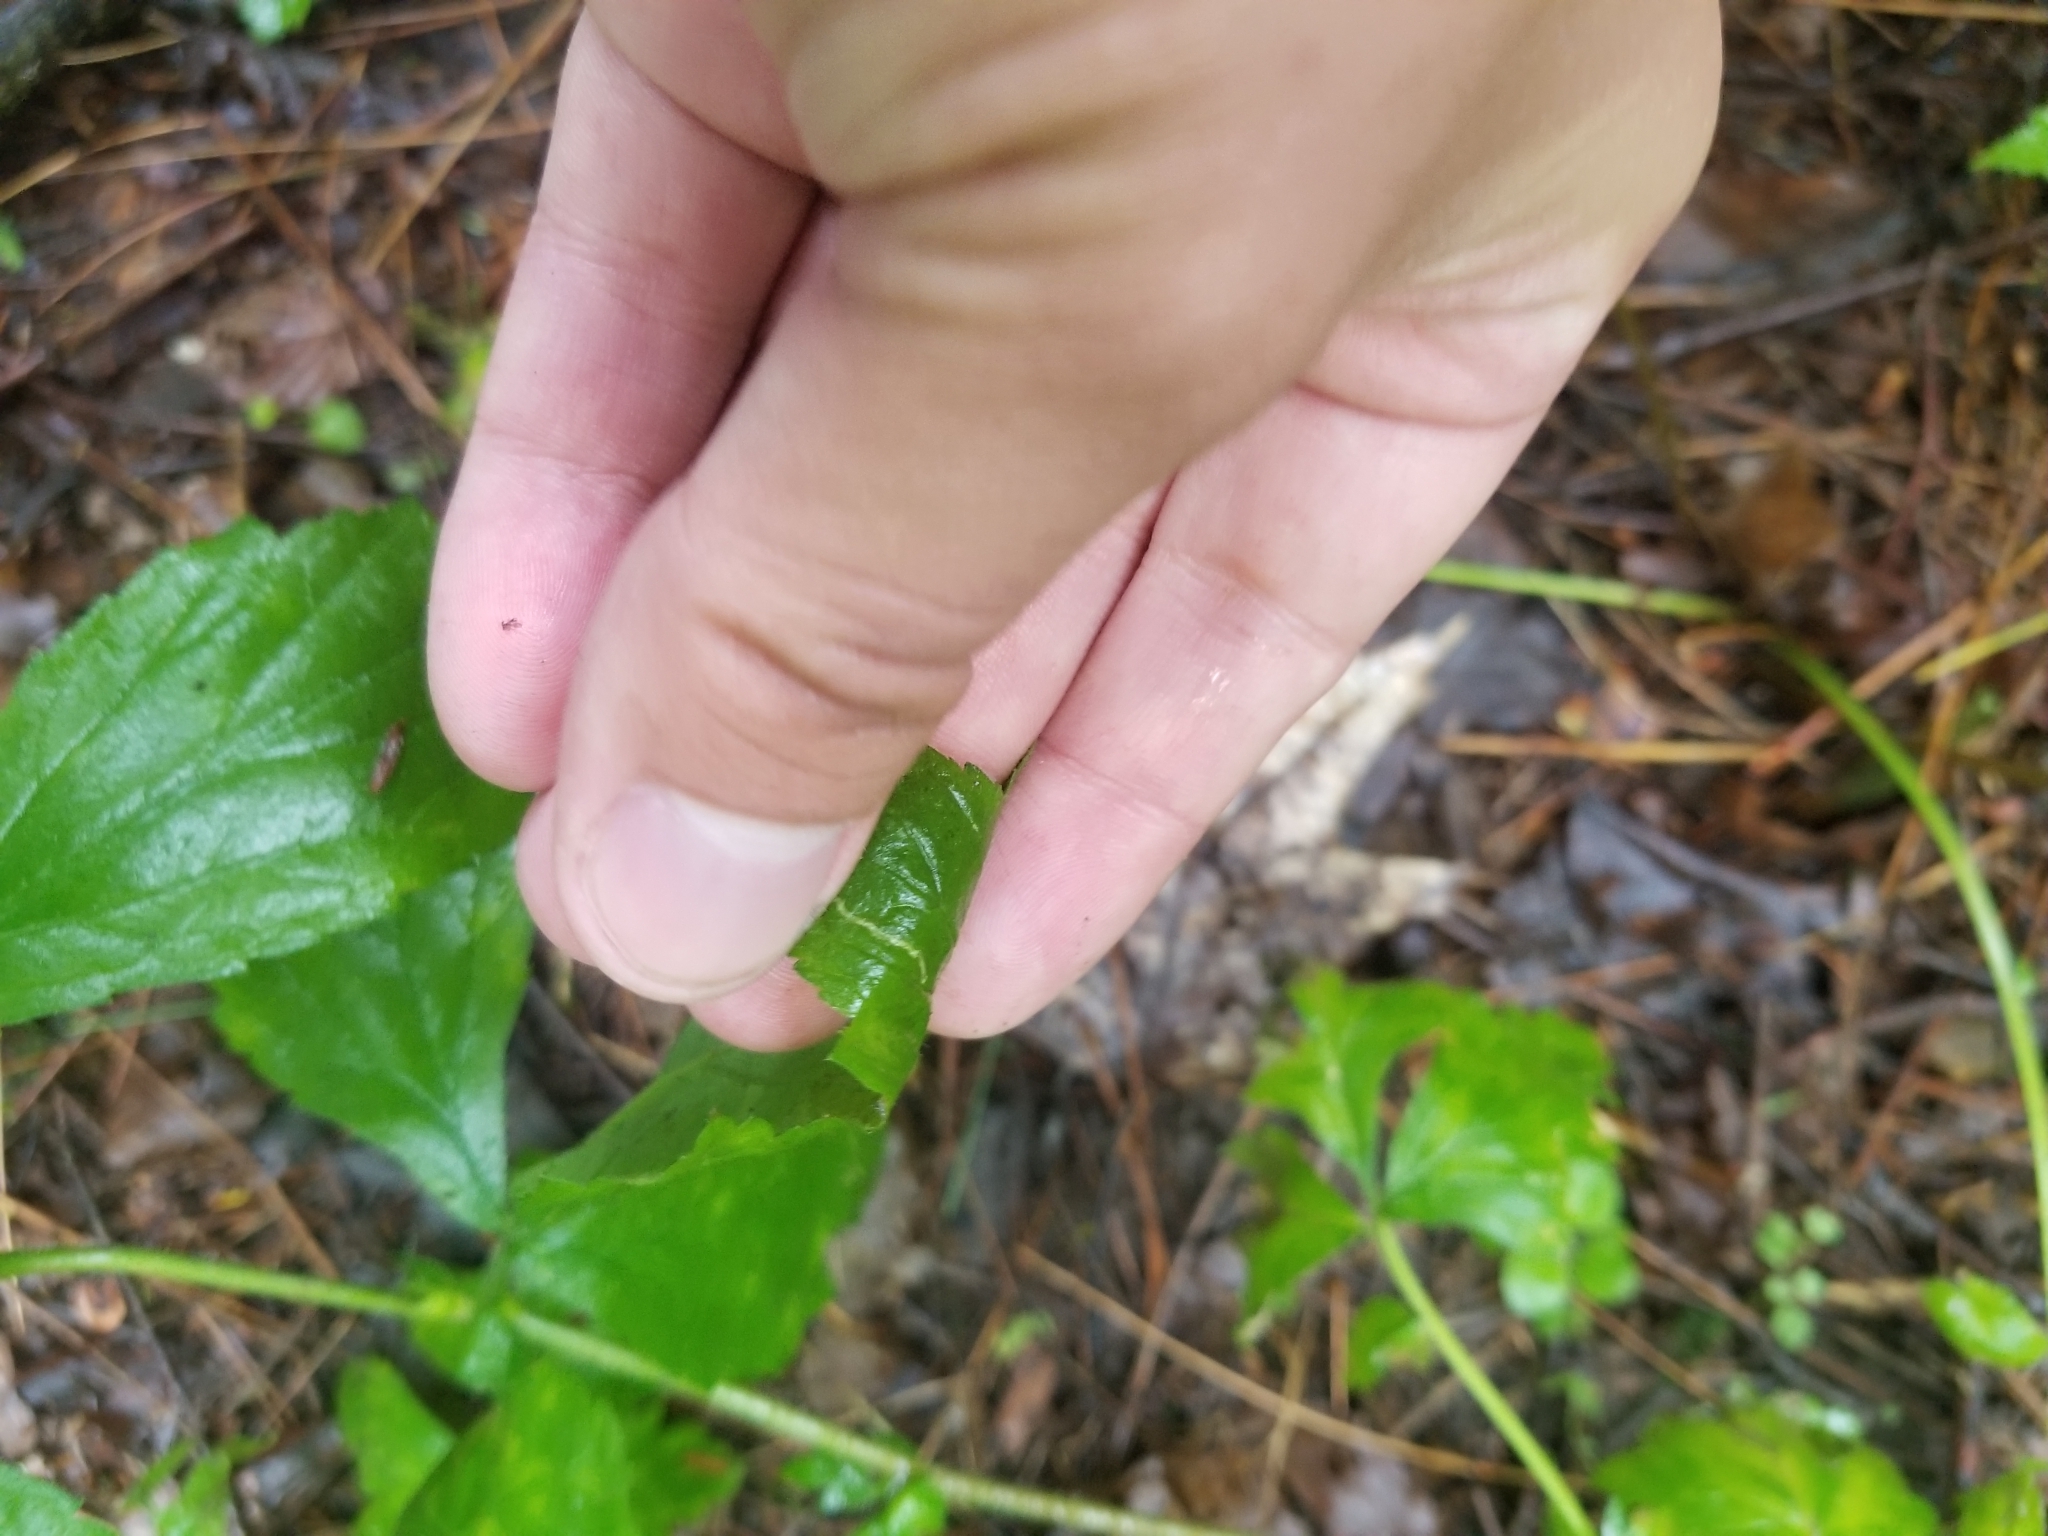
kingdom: Plantae
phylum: Tracheophyta
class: Magnoliopsida
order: Rosales
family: Rosaceae
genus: Geum
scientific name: Geum canadense
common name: White avens
